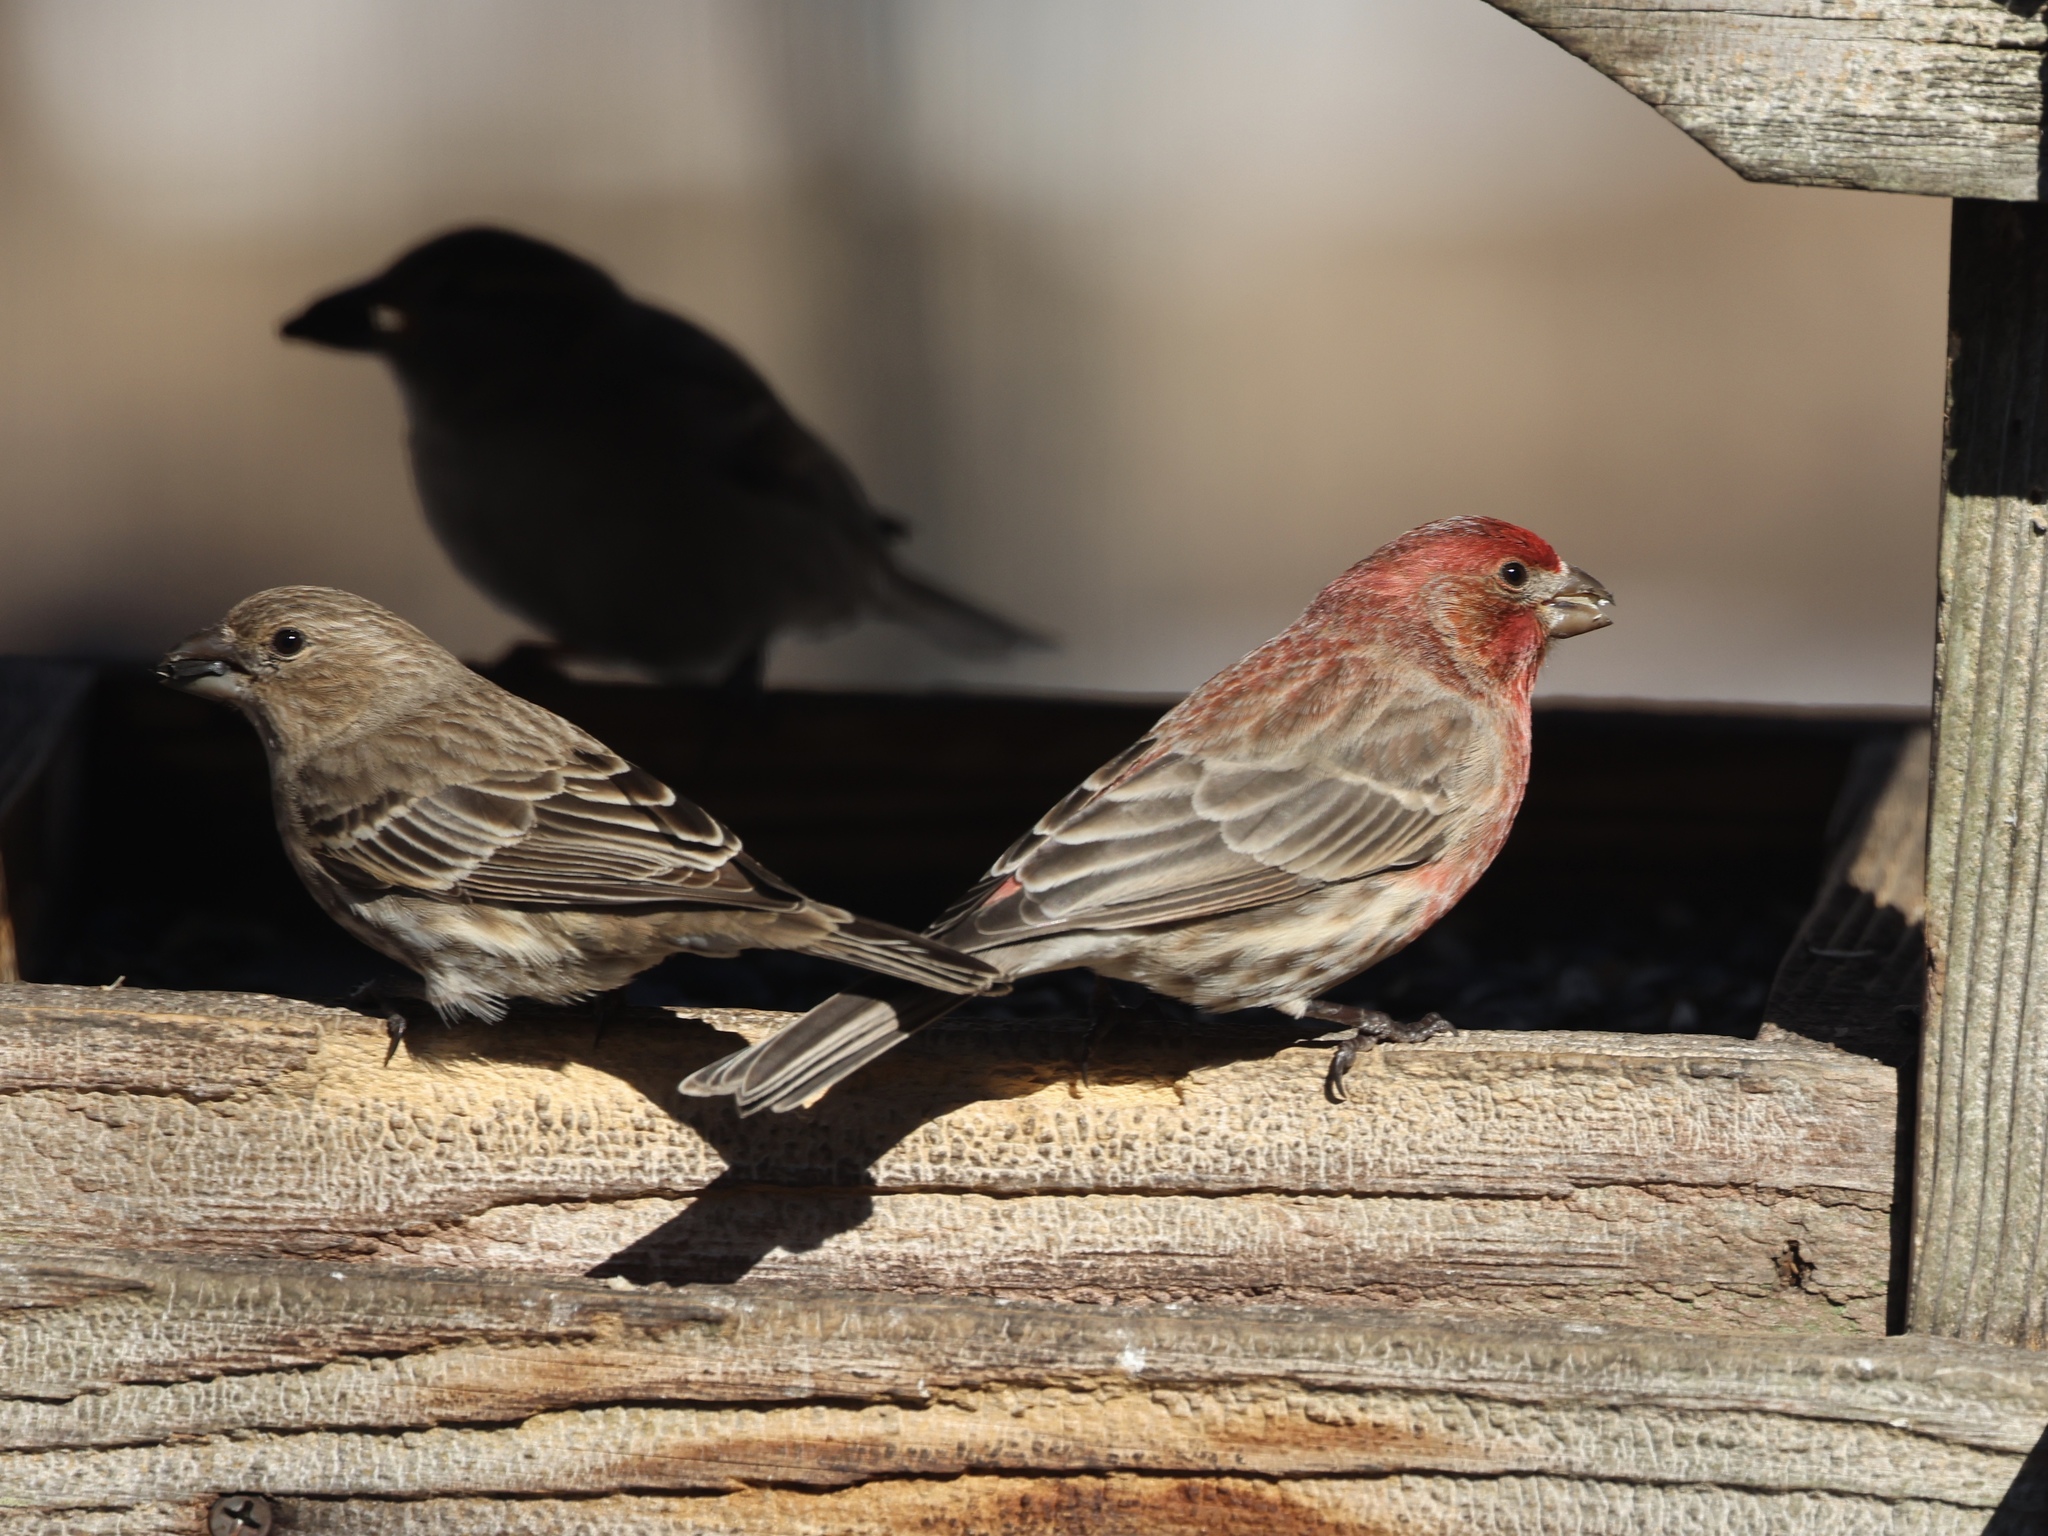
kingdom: Animalia
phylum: Chordata
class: Aves
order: Passeriformes
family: Fringillidae
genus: Haemorhous
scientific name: Haemorhous mexicanus
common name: House finch
